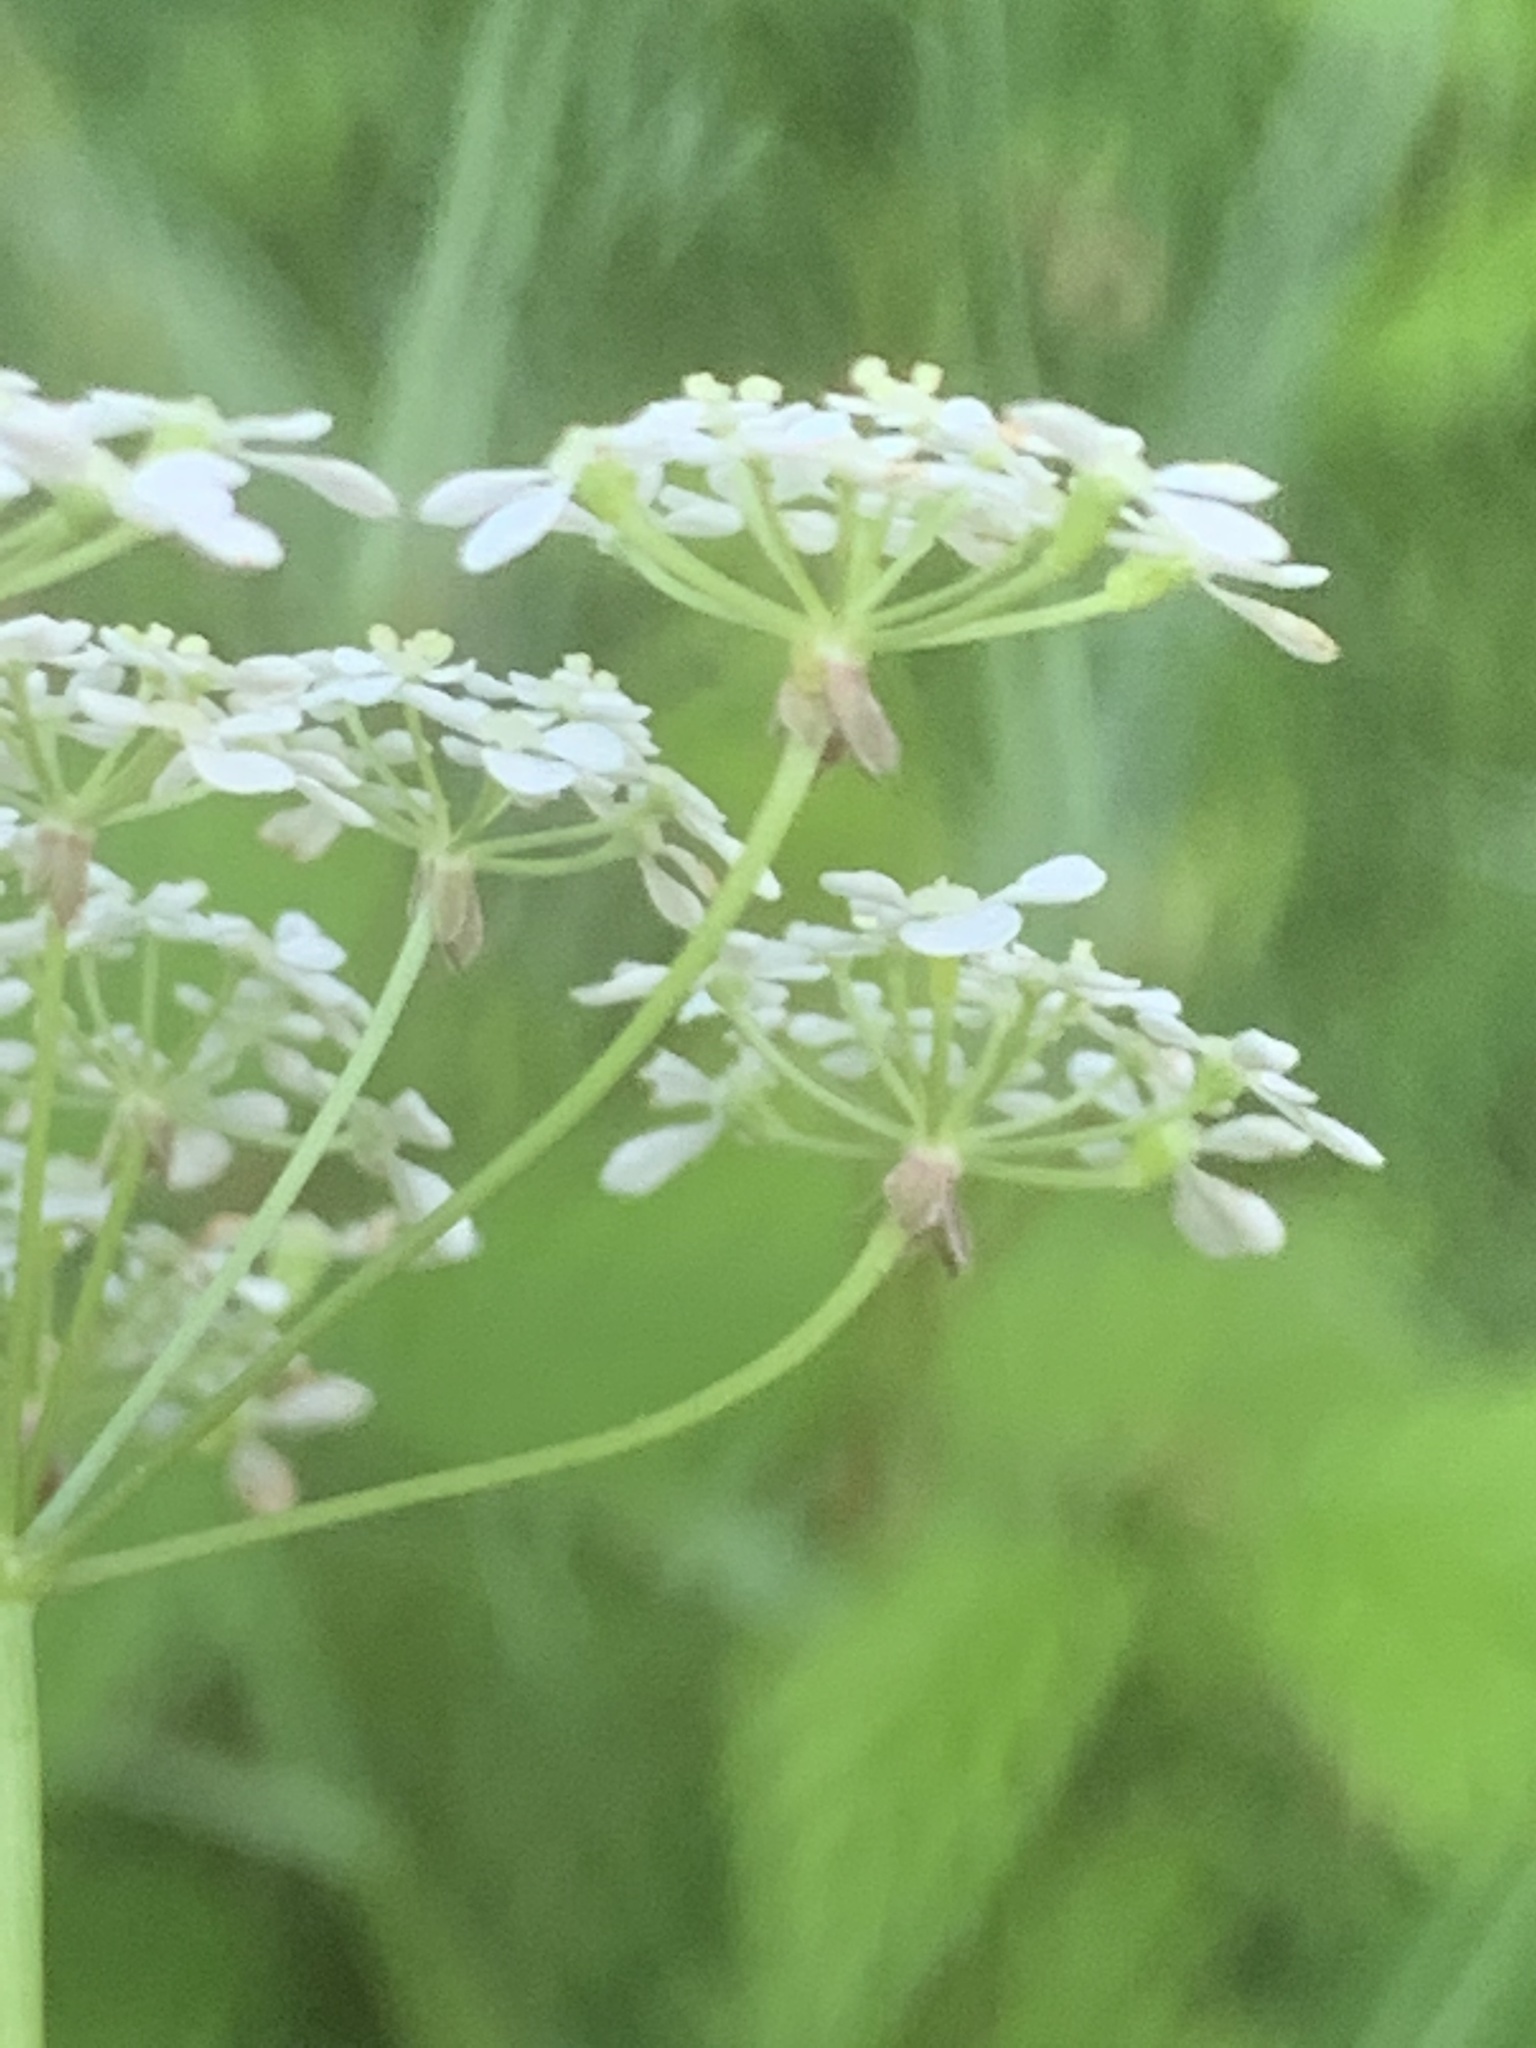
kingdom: Plantae
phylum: Tracheophyta
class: Magnoliopsida
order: Apiales
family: Apiaceae
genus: Anthriscus
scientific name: Anthriscus sylvestris
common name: Cow parsley
